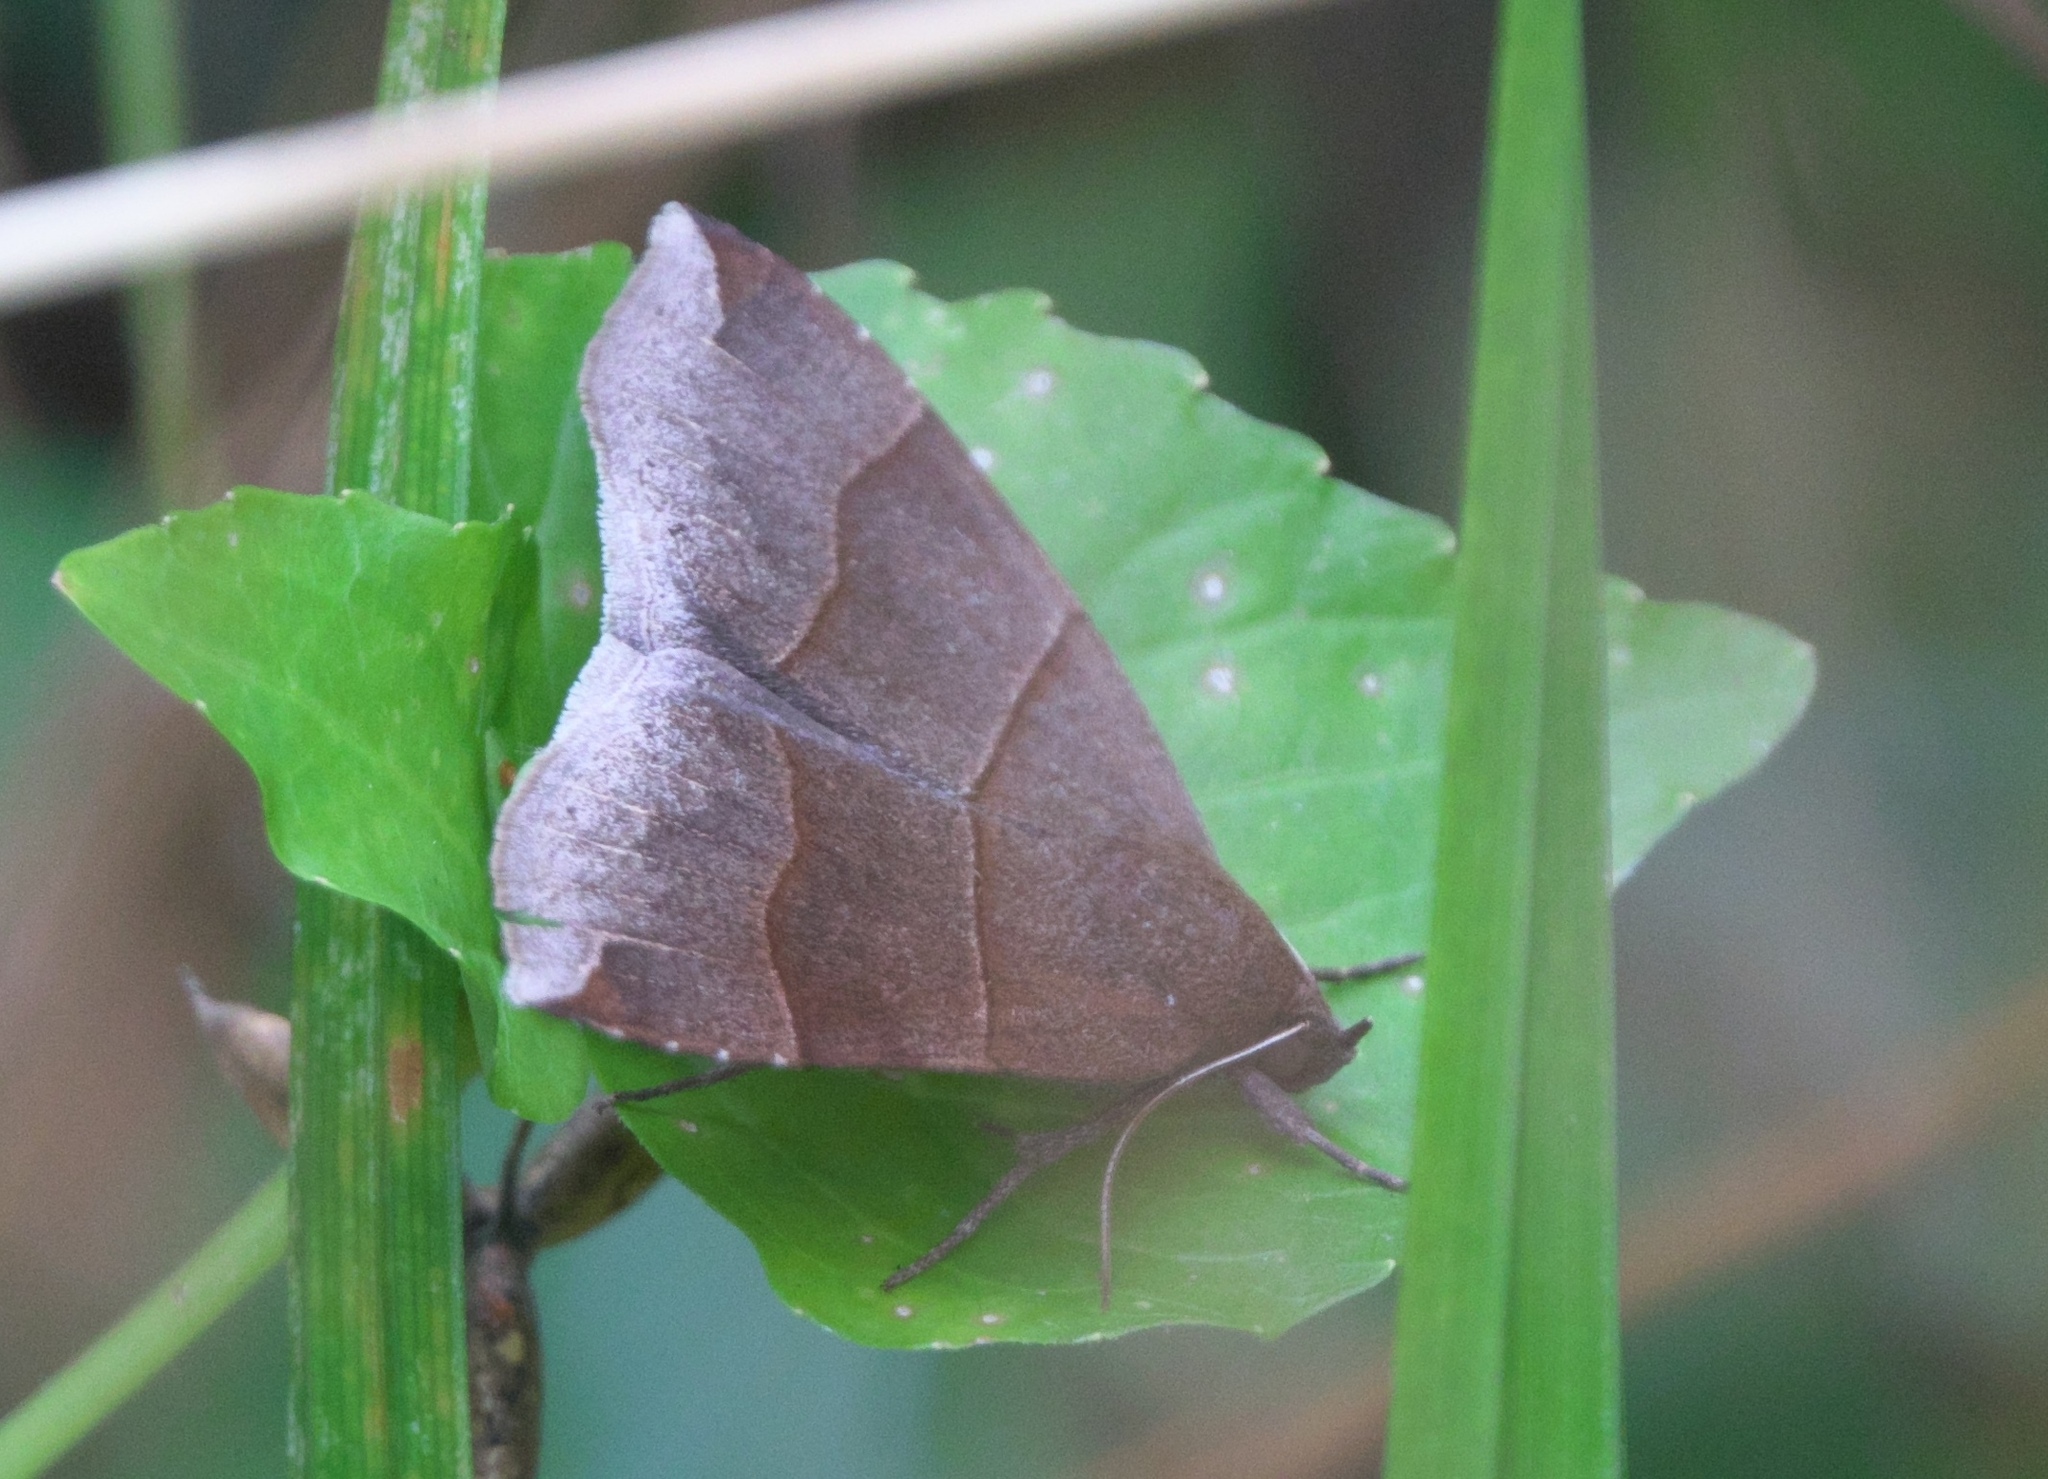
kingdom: Animalia
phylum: Arthropoda
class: Insecta
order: Lepidoptera
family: Erebidae
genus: Parallelia
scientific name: Parallelia bistriaris
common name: Maple looper moth
